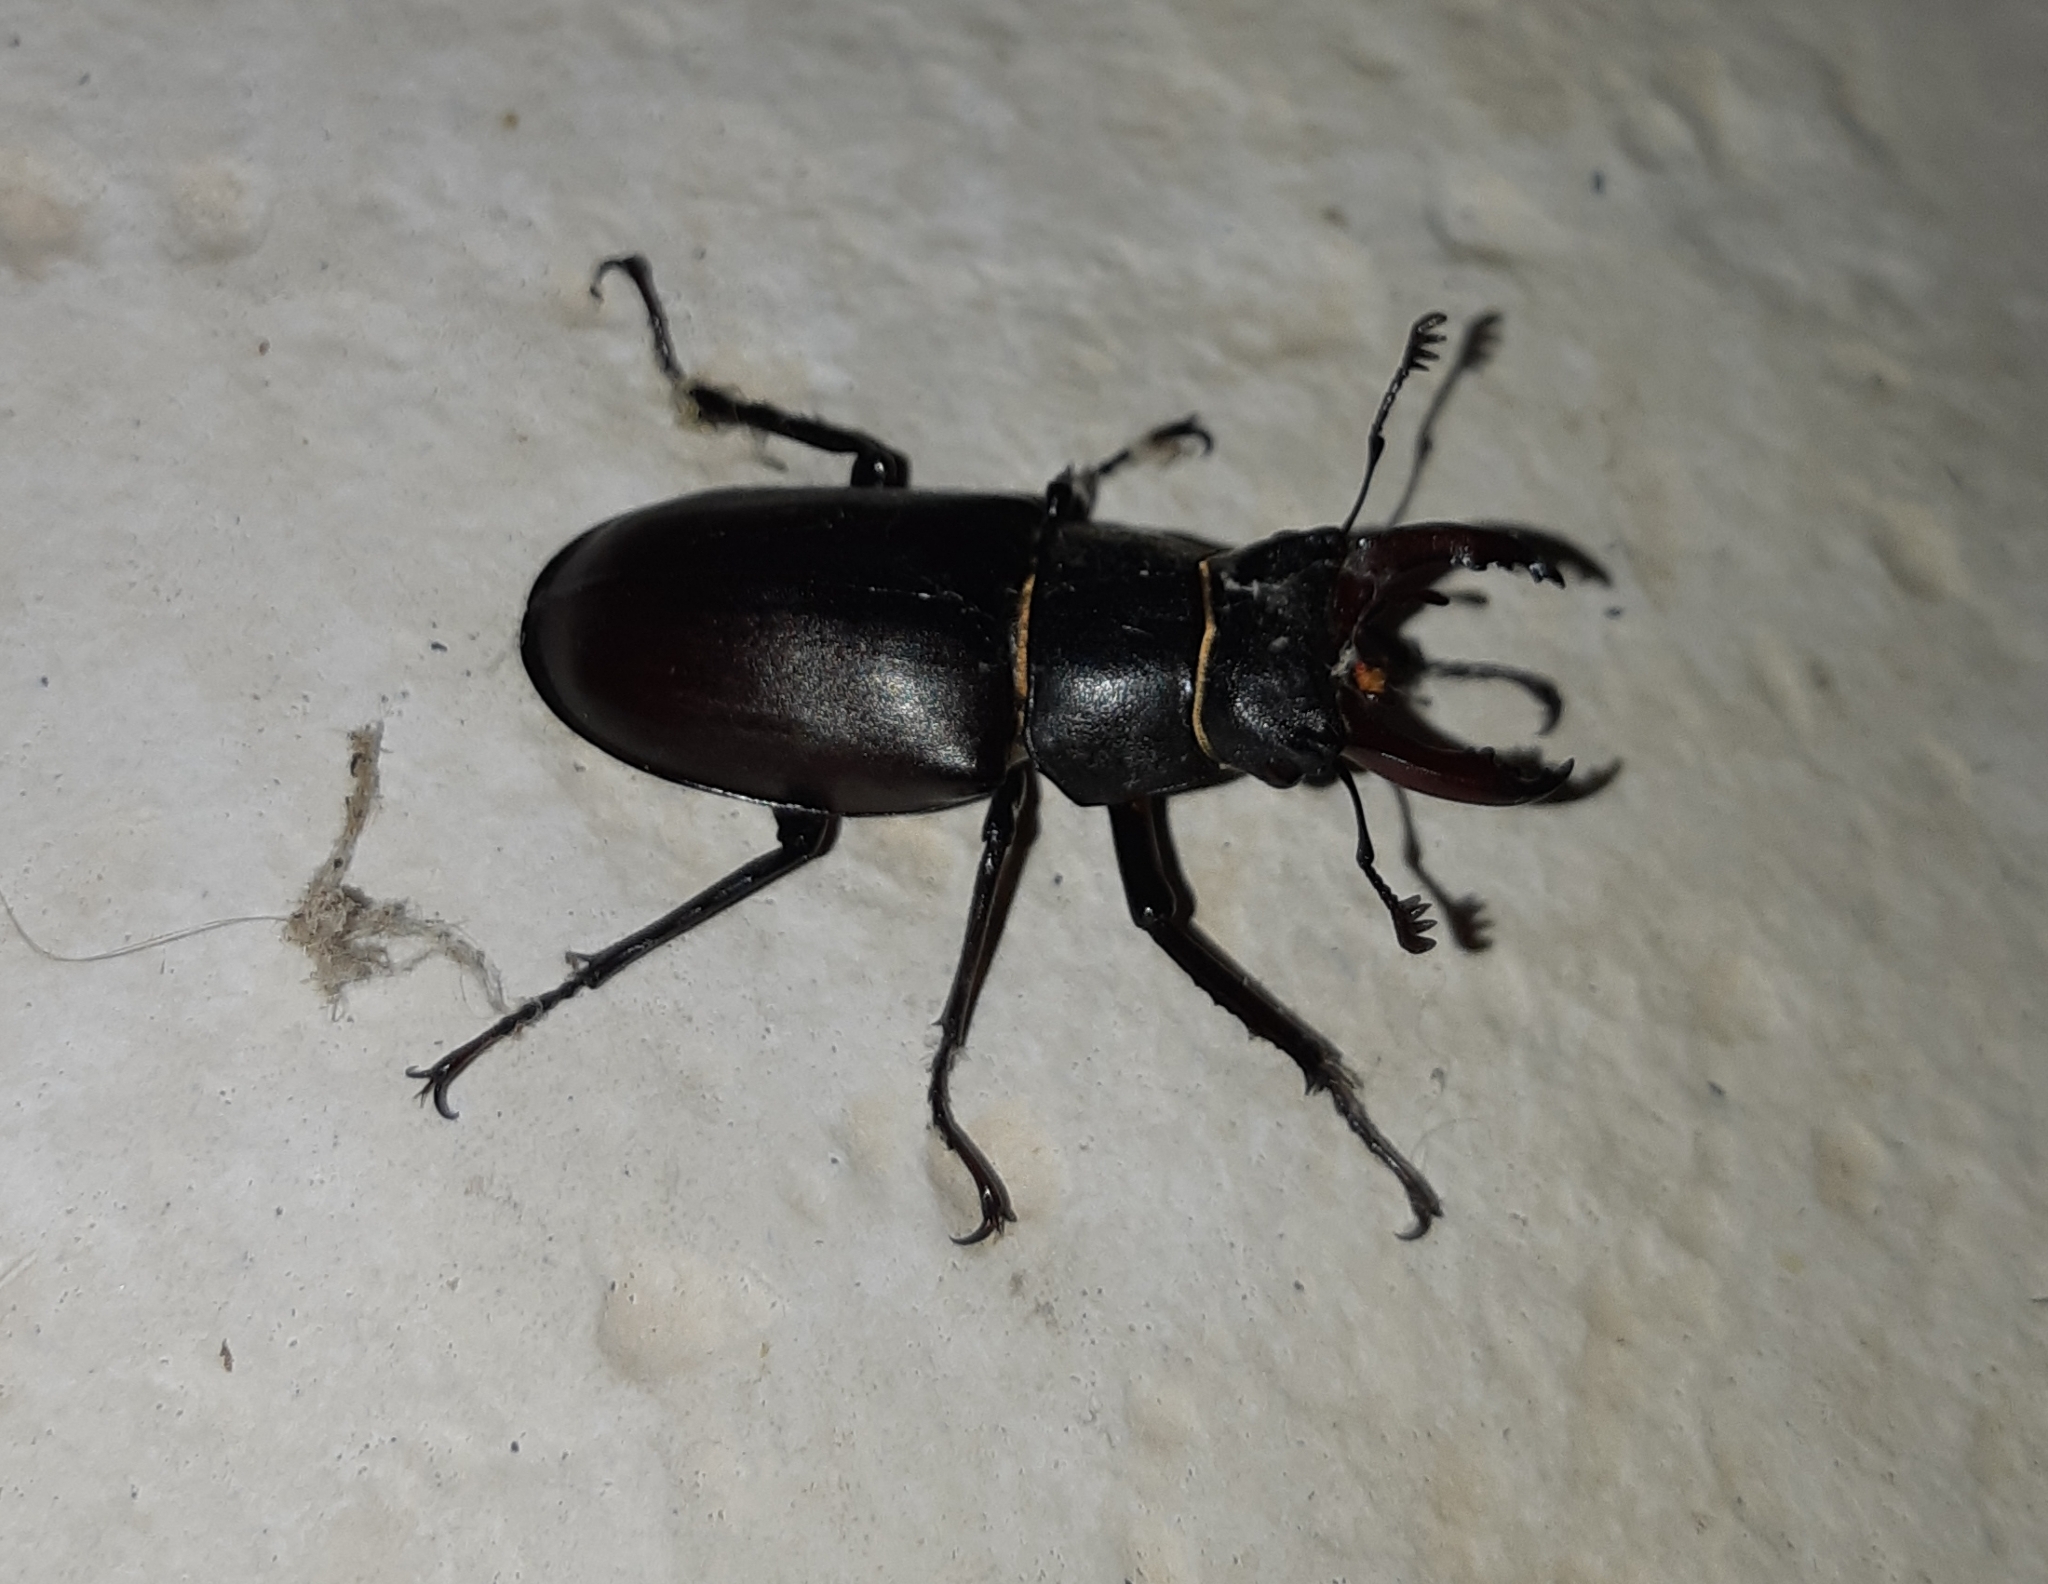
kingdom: Animalia
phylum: Arthropoda
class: Insecta
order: Coleoptera
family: Lucanidae
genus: Lucanus
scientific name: Lucanus cervus
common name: Stag beetle
